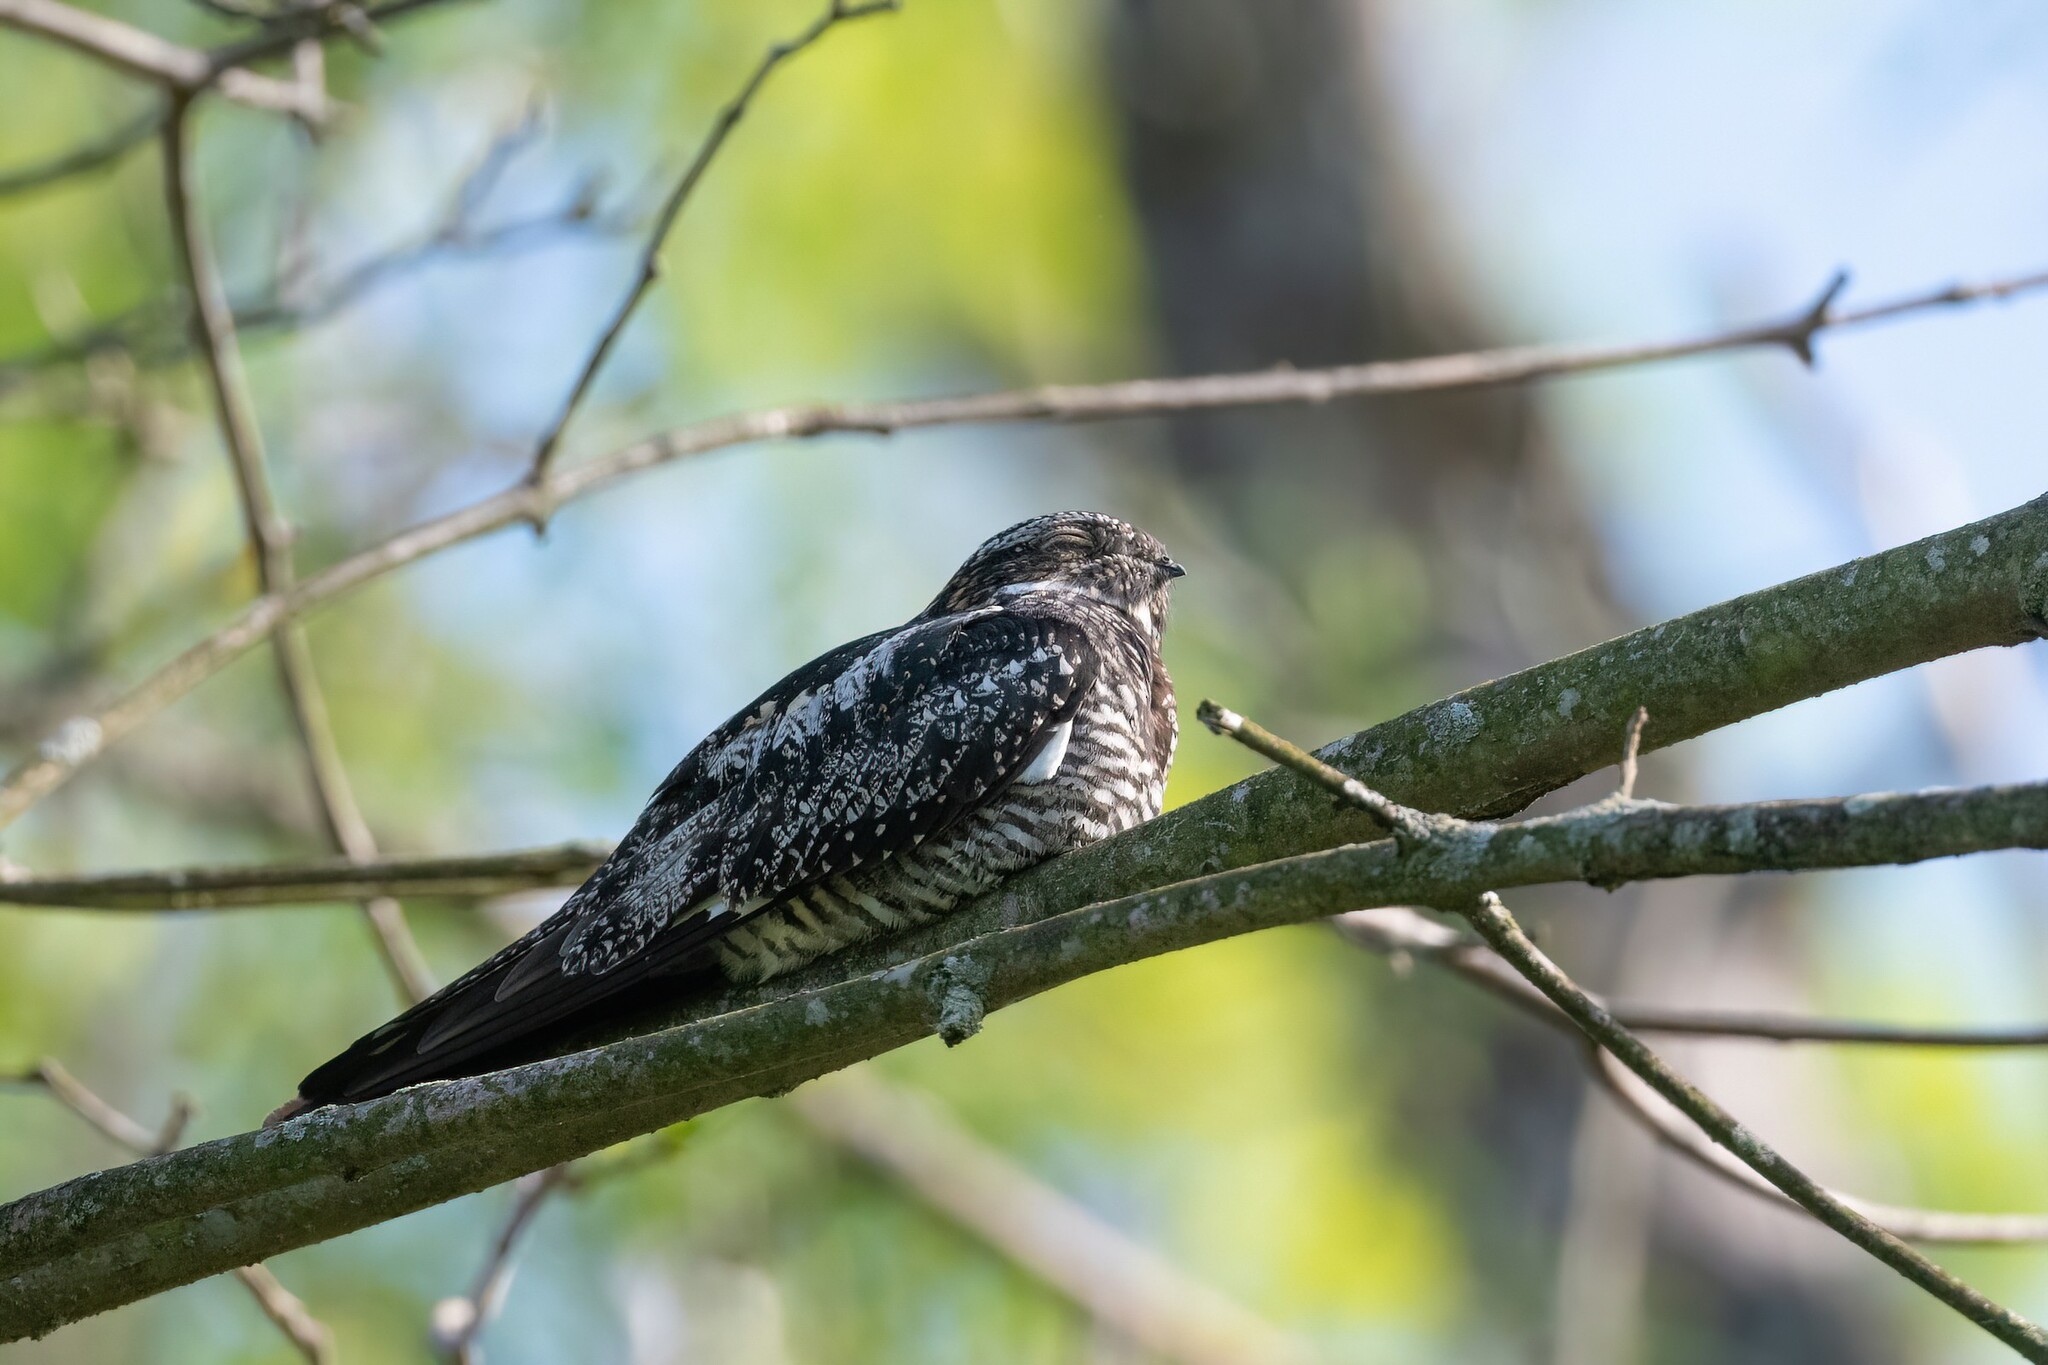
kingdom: Animalia
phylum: Chordata
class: Aves
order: Caprimulgiformes
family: Caprimulgidae
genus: Chordeiles
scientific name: Chordeiles minor
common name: Common nighthawk
